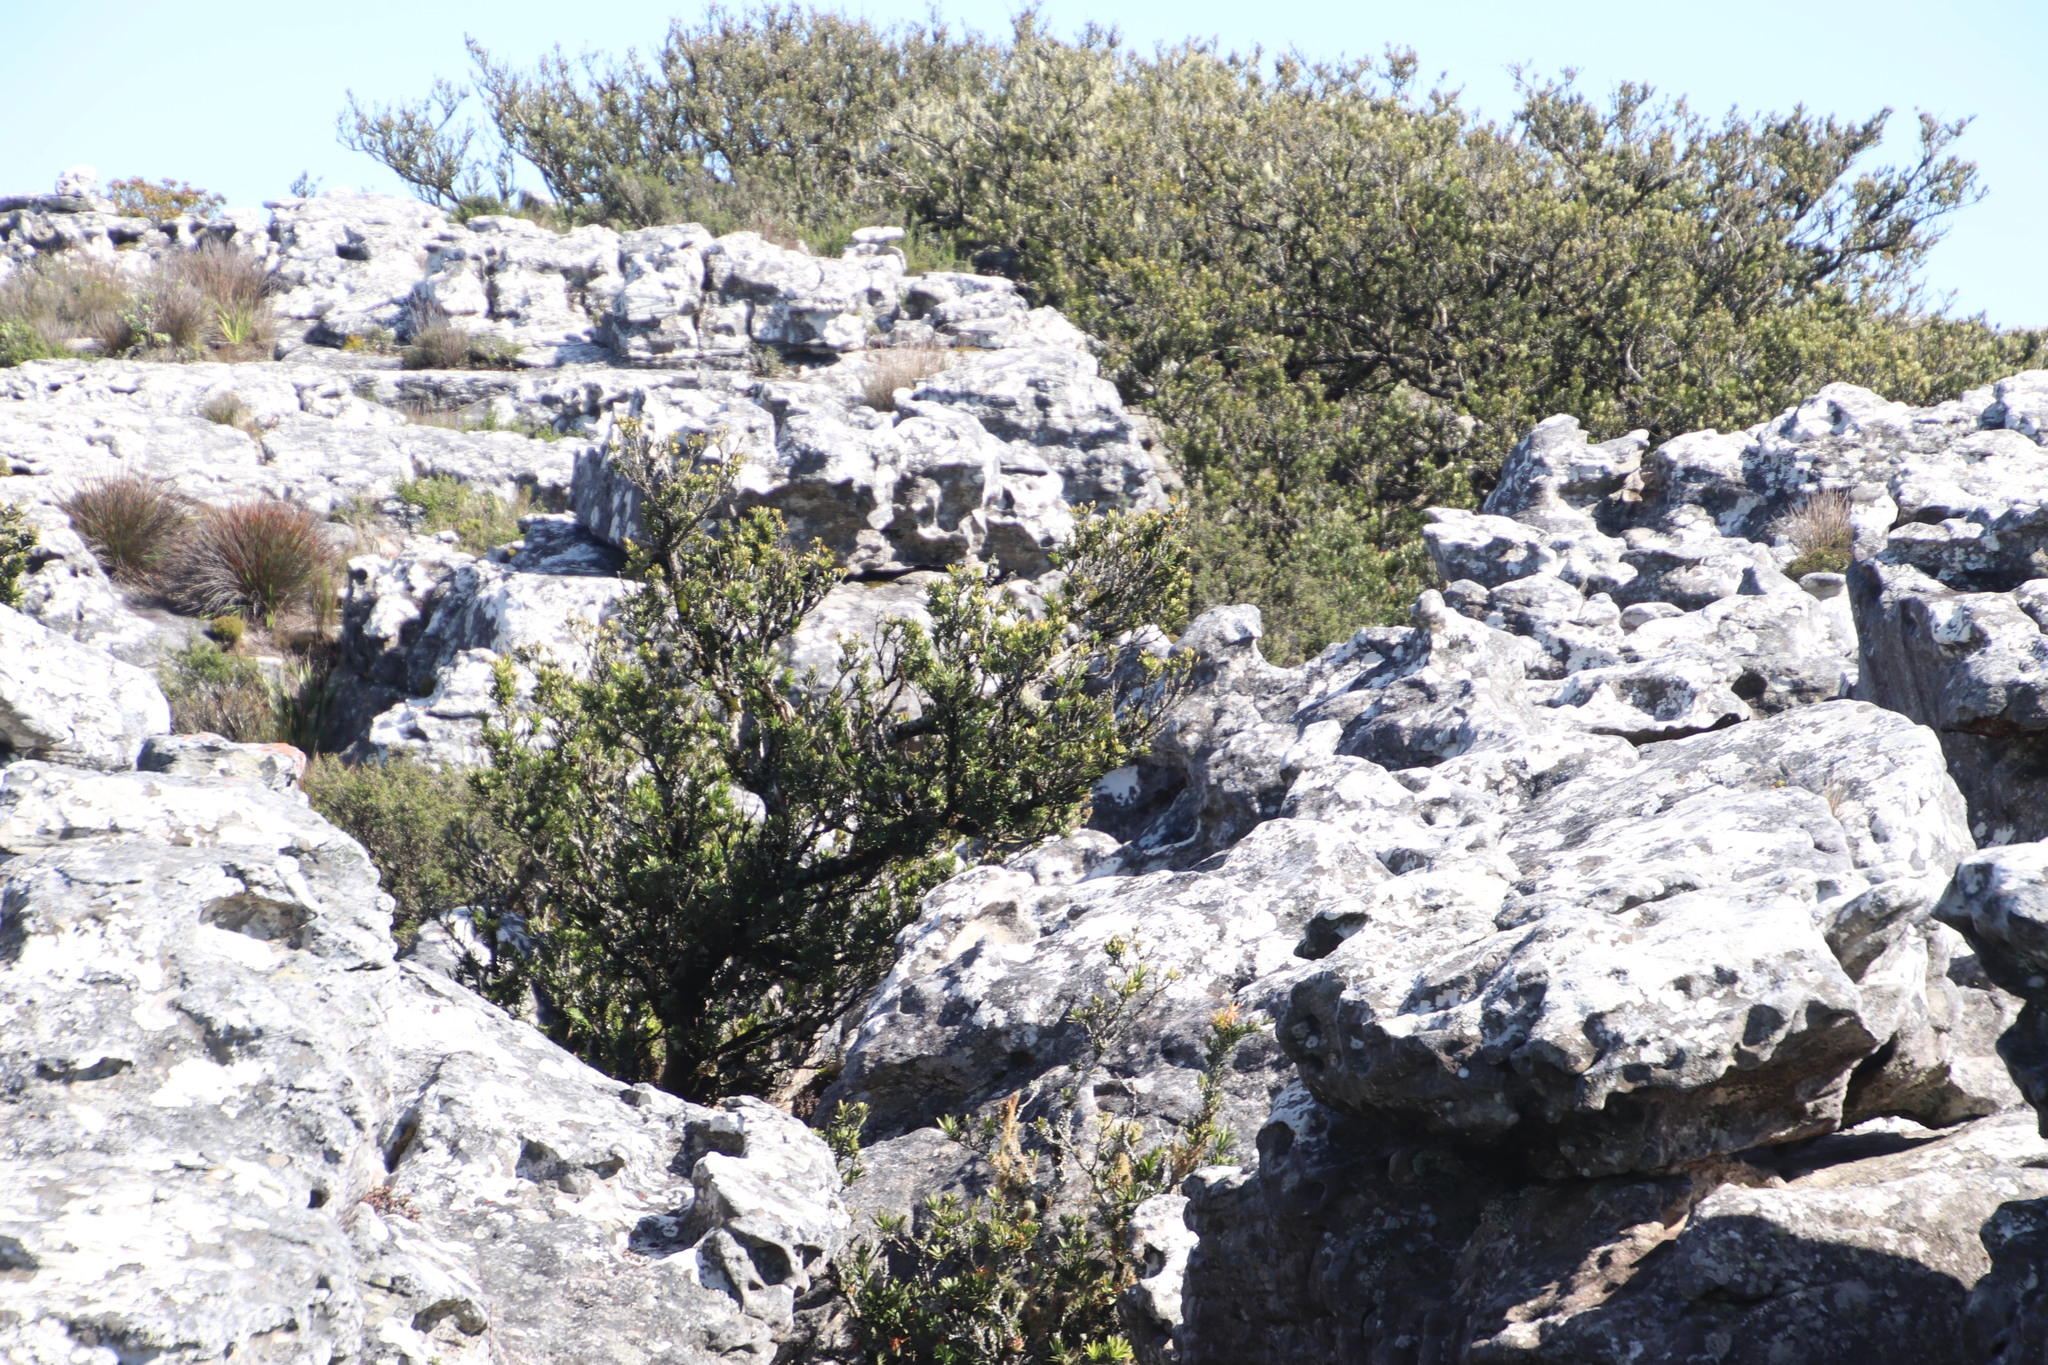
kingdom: Plantae
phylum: Tracheophyta
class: Pinopsida
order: Pinales
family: Podocarpaceae
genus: Podocarpus
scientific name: Podocarpus latifolius
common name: True yellowwood
